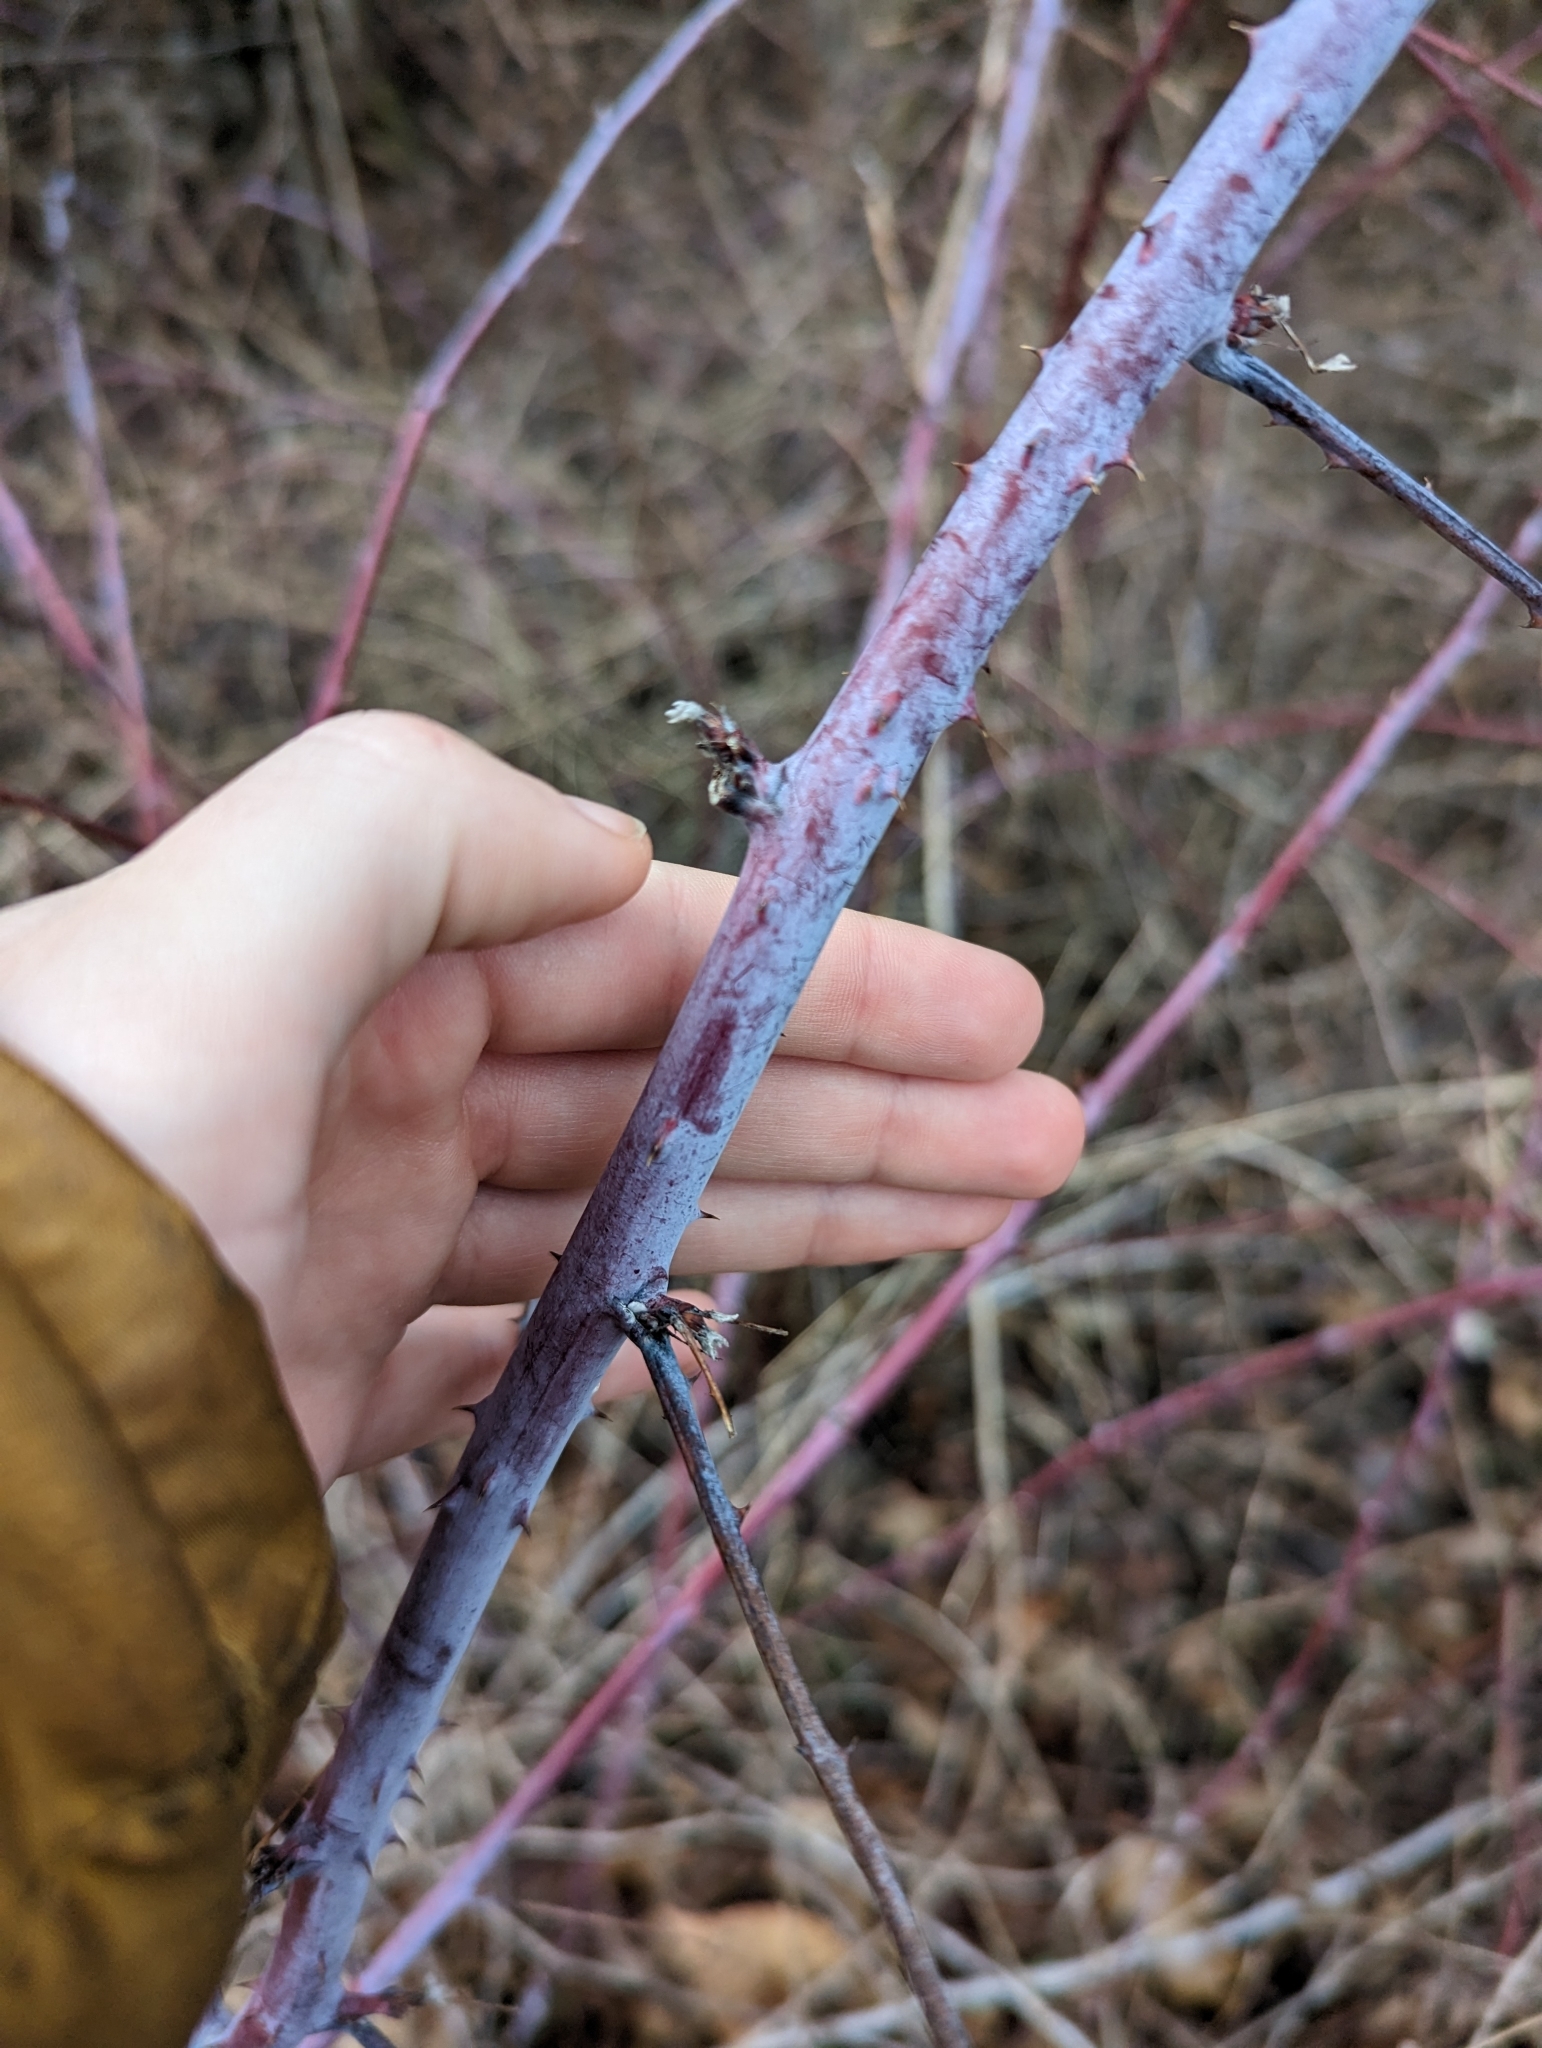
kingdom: Plantae
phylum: Tracheophyta
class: Magnoliopsida
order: Rosales
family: Rosaceae
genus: Rubus
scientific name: Rubus occidentalis
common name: Black raspberry
